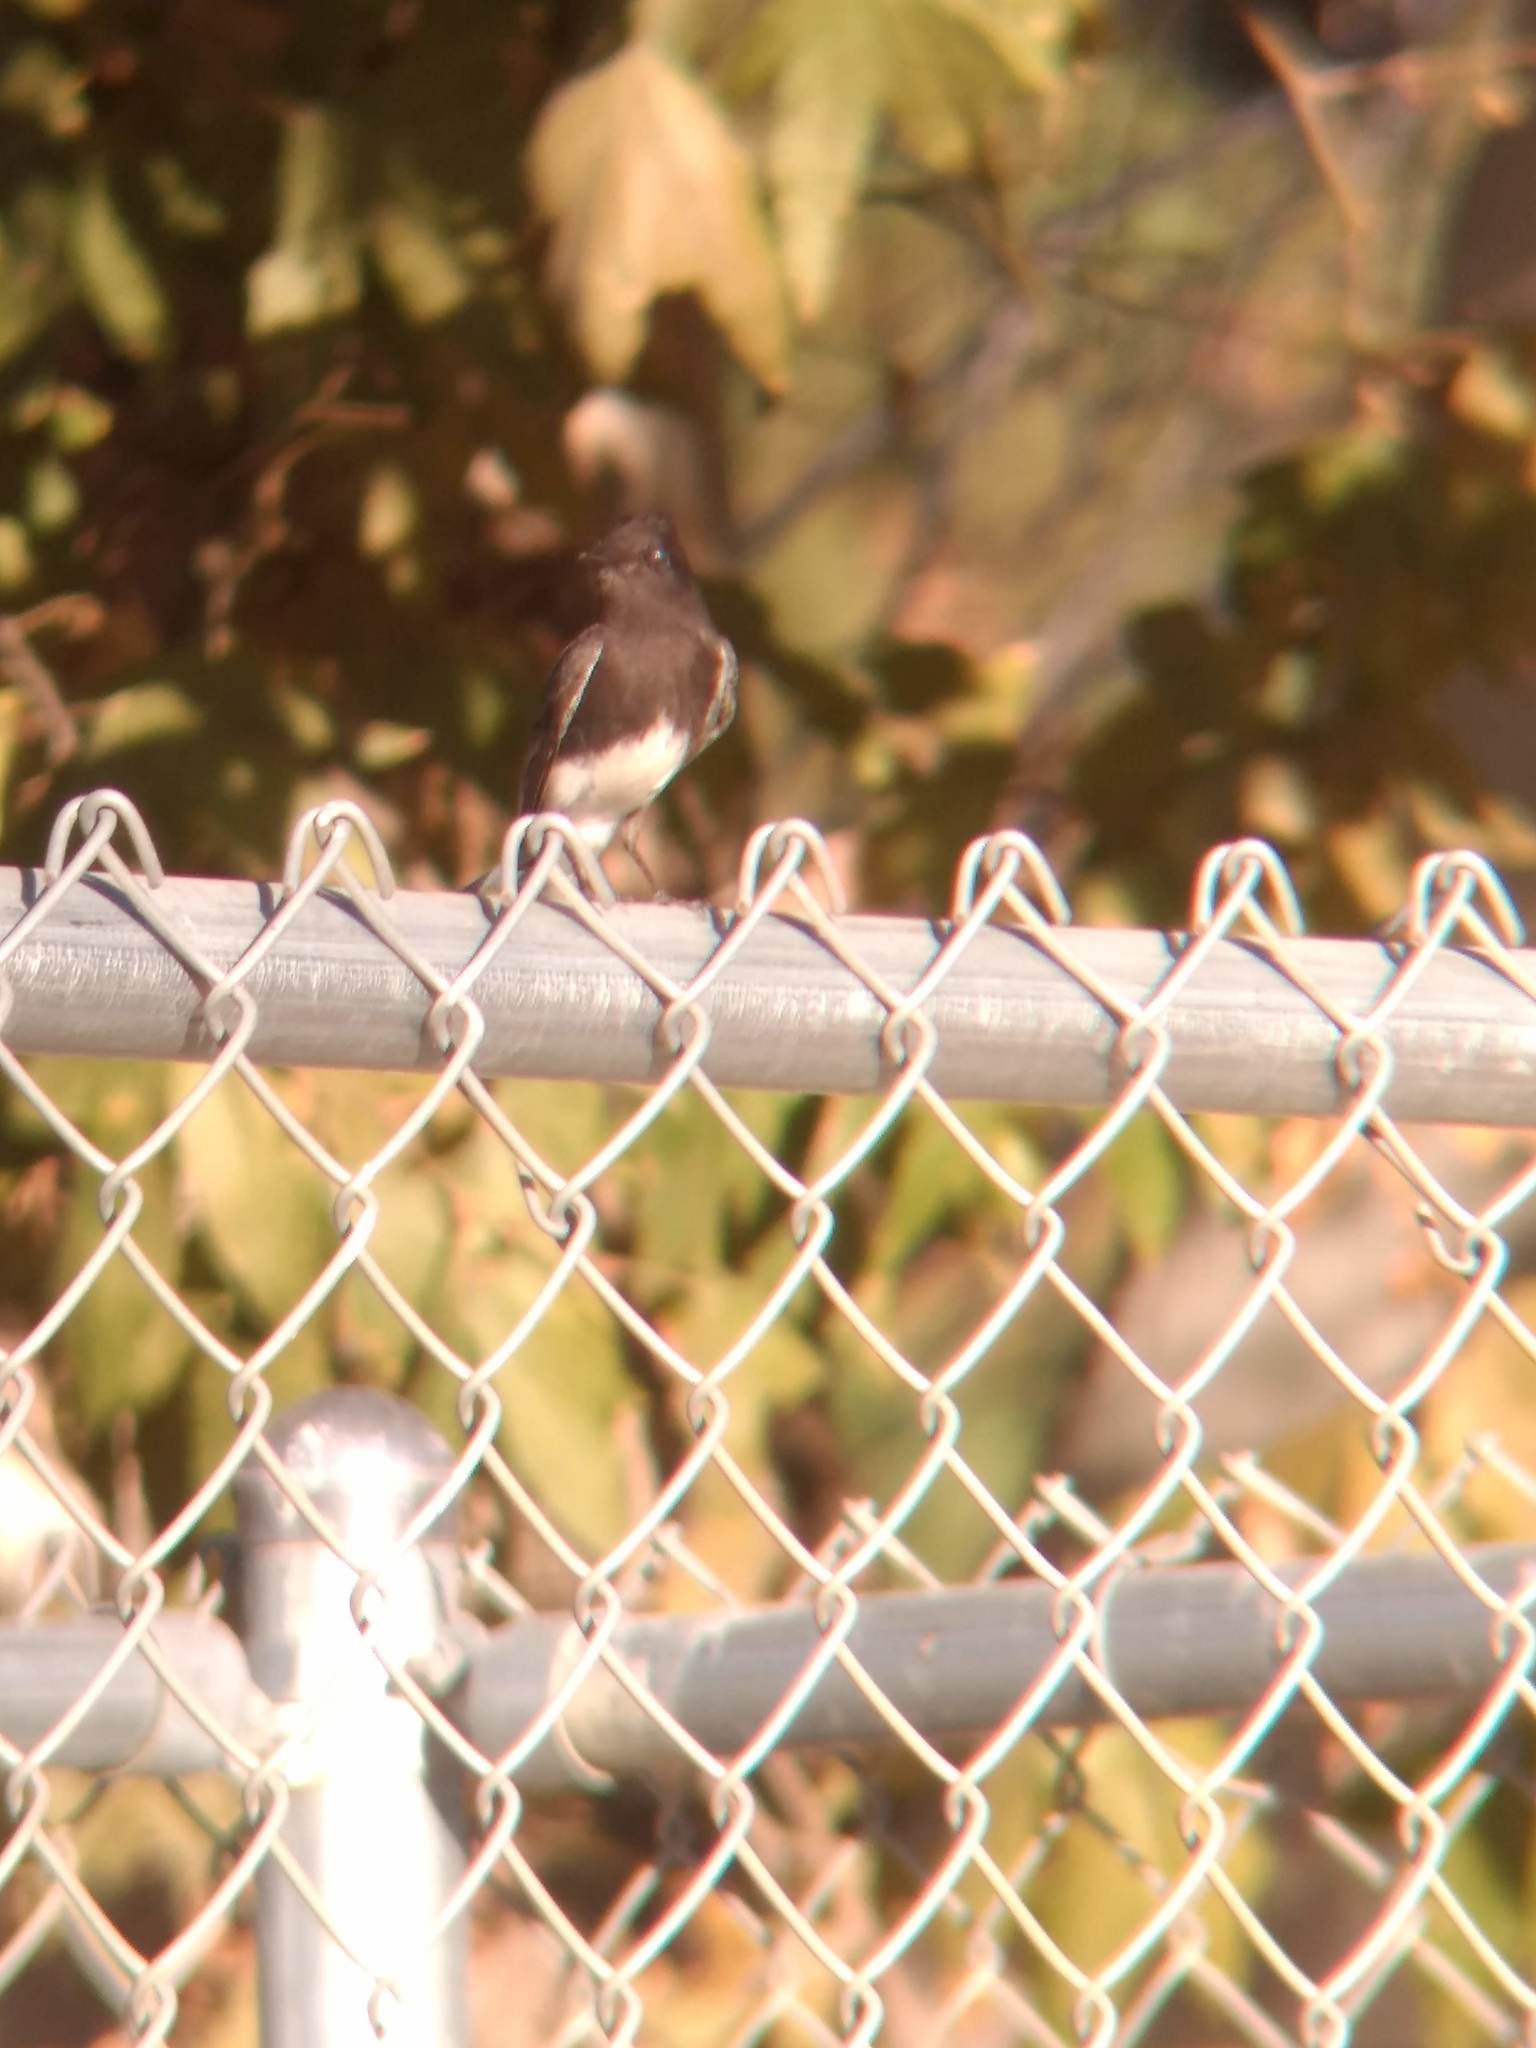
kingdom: Animalia
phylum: Chordata
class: Aves
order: Passeriformes
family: Tyrannidae
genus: Sayornis
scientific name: Sayornis nigricans
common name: Black phoebe
